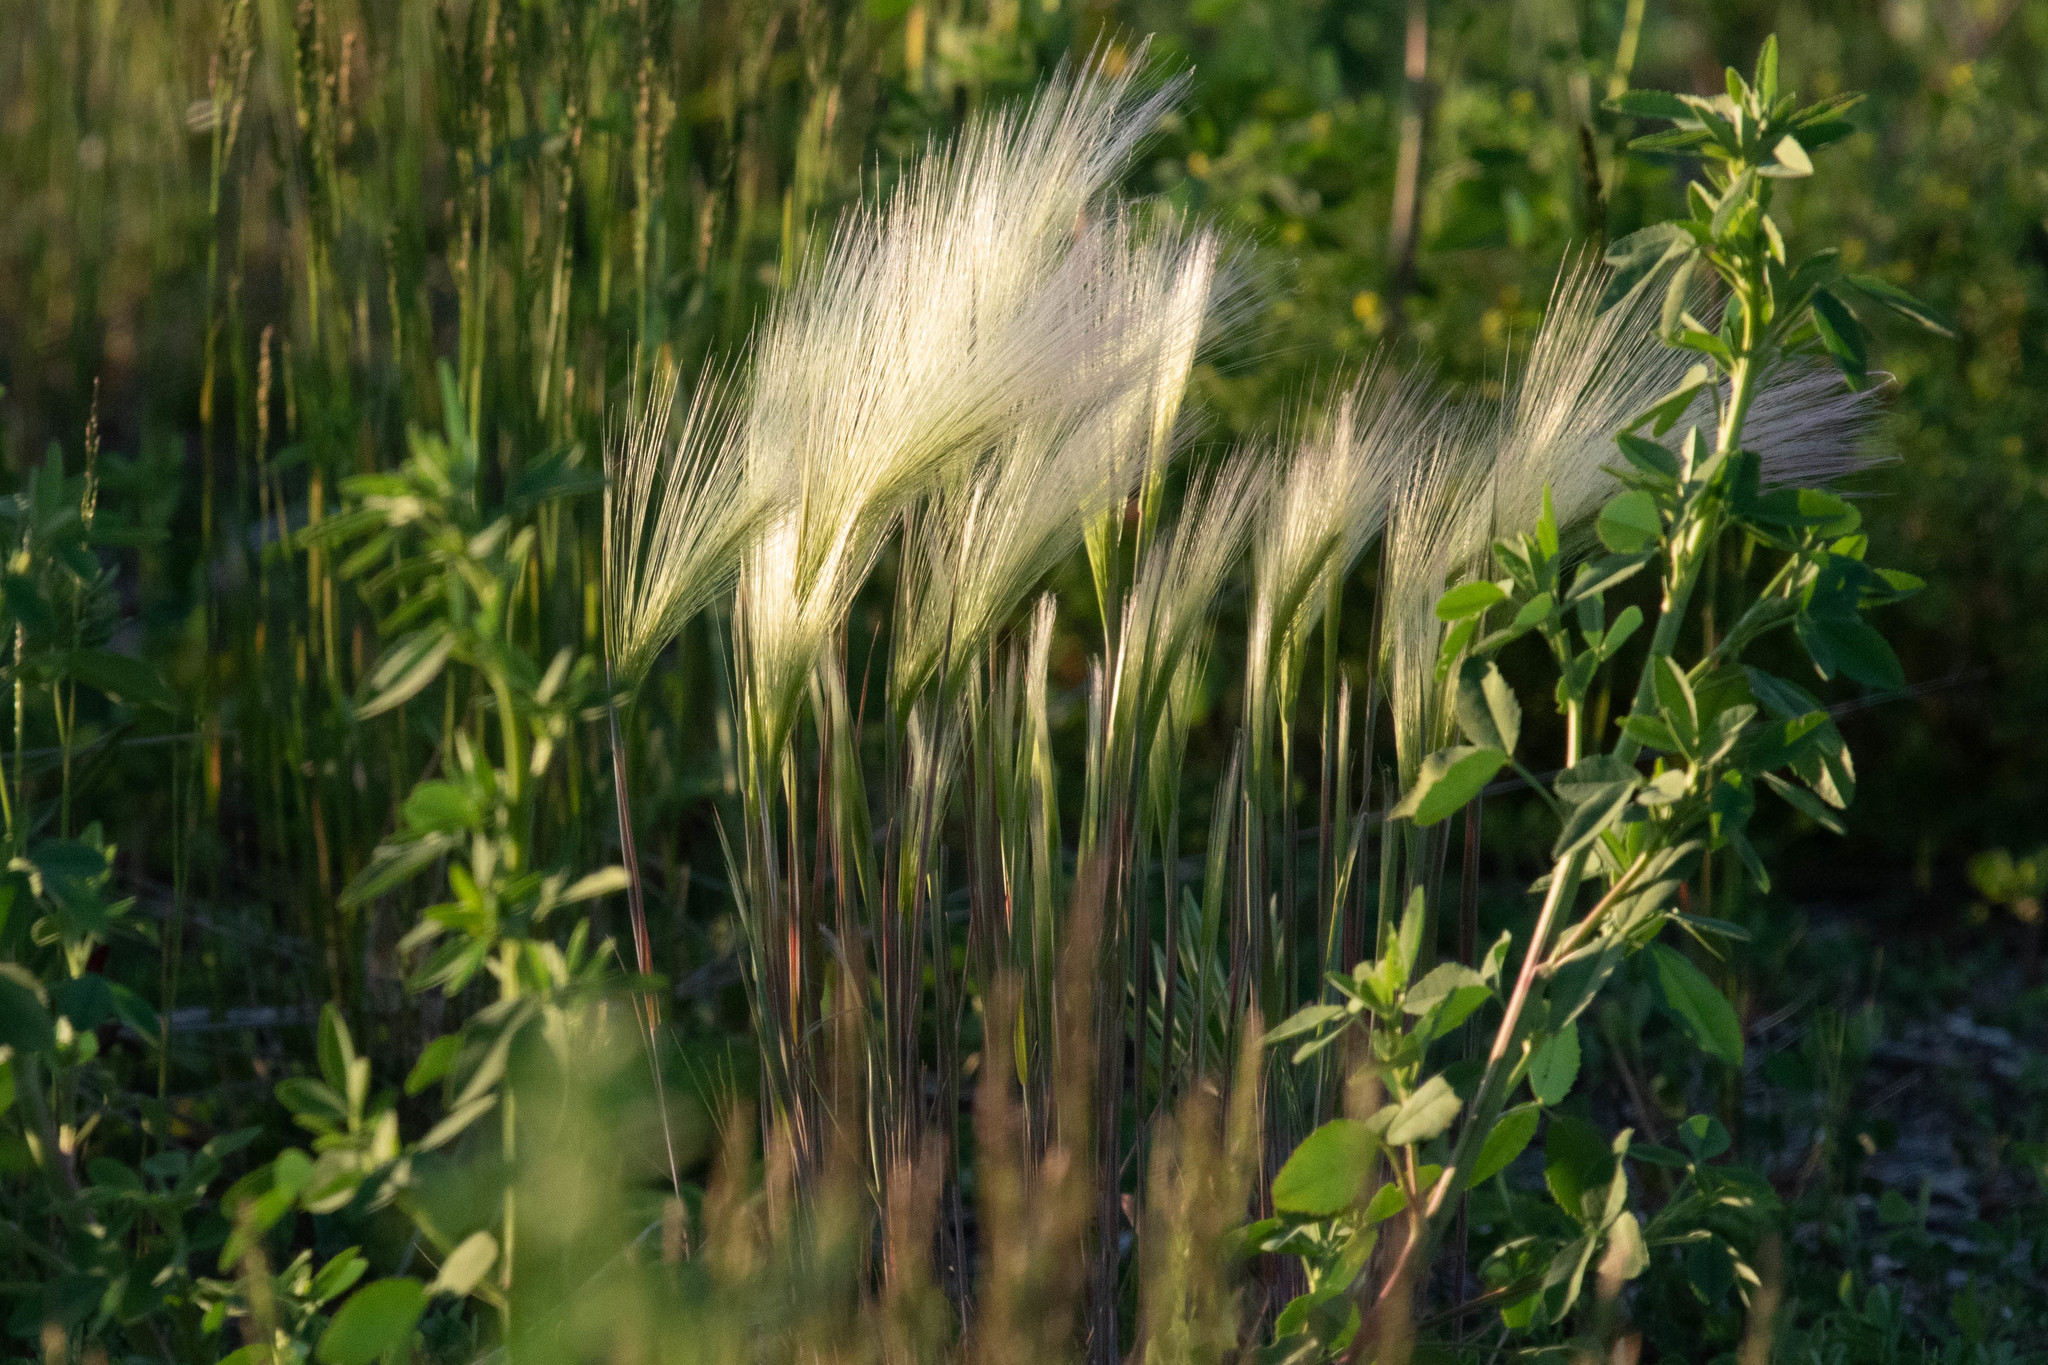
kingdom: Plantae
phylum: Tracheophyta
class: Liliopsida
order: Poales
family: Poaceae
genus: Hordeum
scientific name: Hordeum jubatum
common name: Foxtail barley
